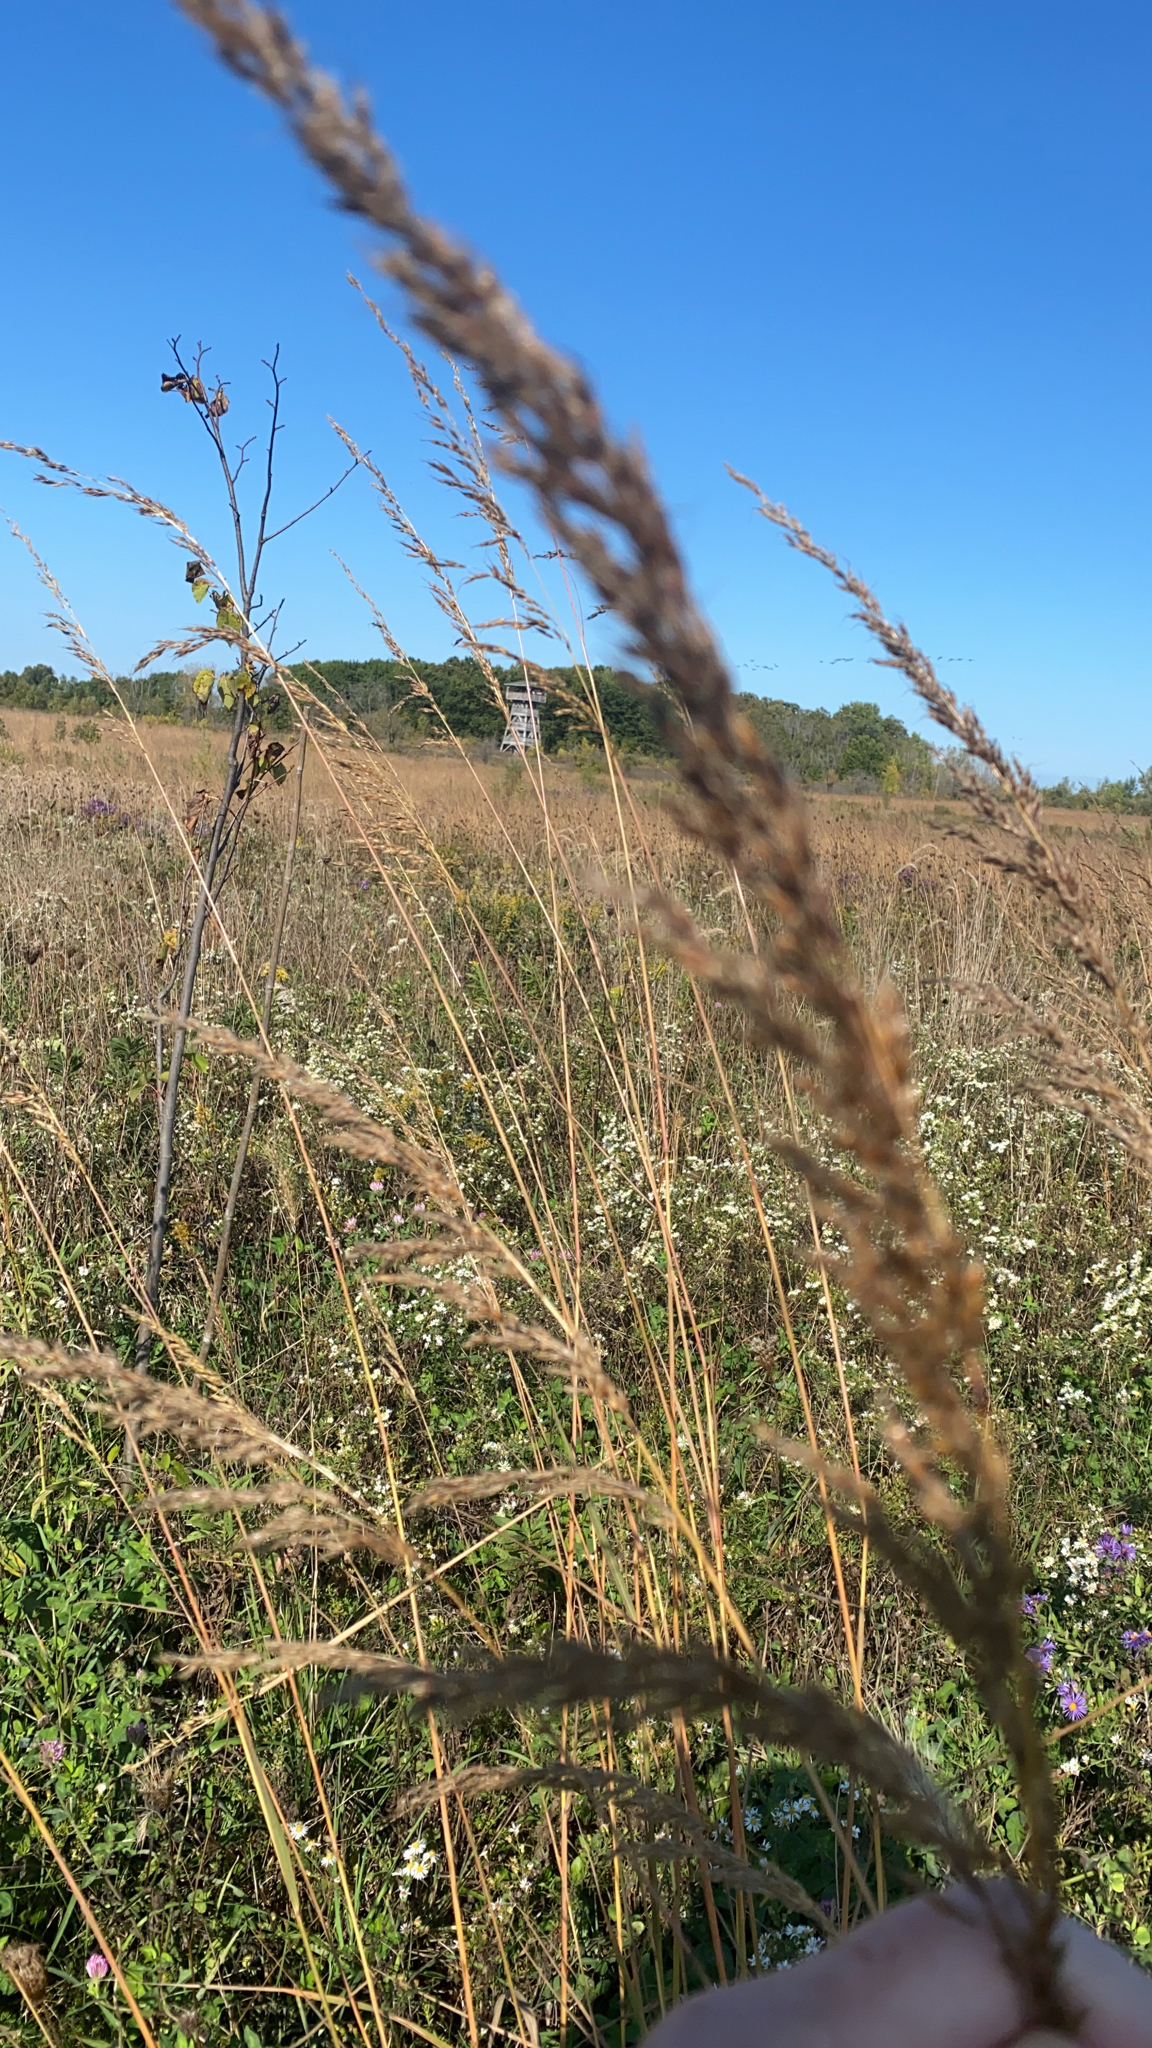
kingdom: Plantae
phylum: Tracheophyta
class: Liliopsida
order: Poales
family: Poaceae
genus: Sorghastrum
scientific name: Sorghastrum nutans
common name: Indian grass
